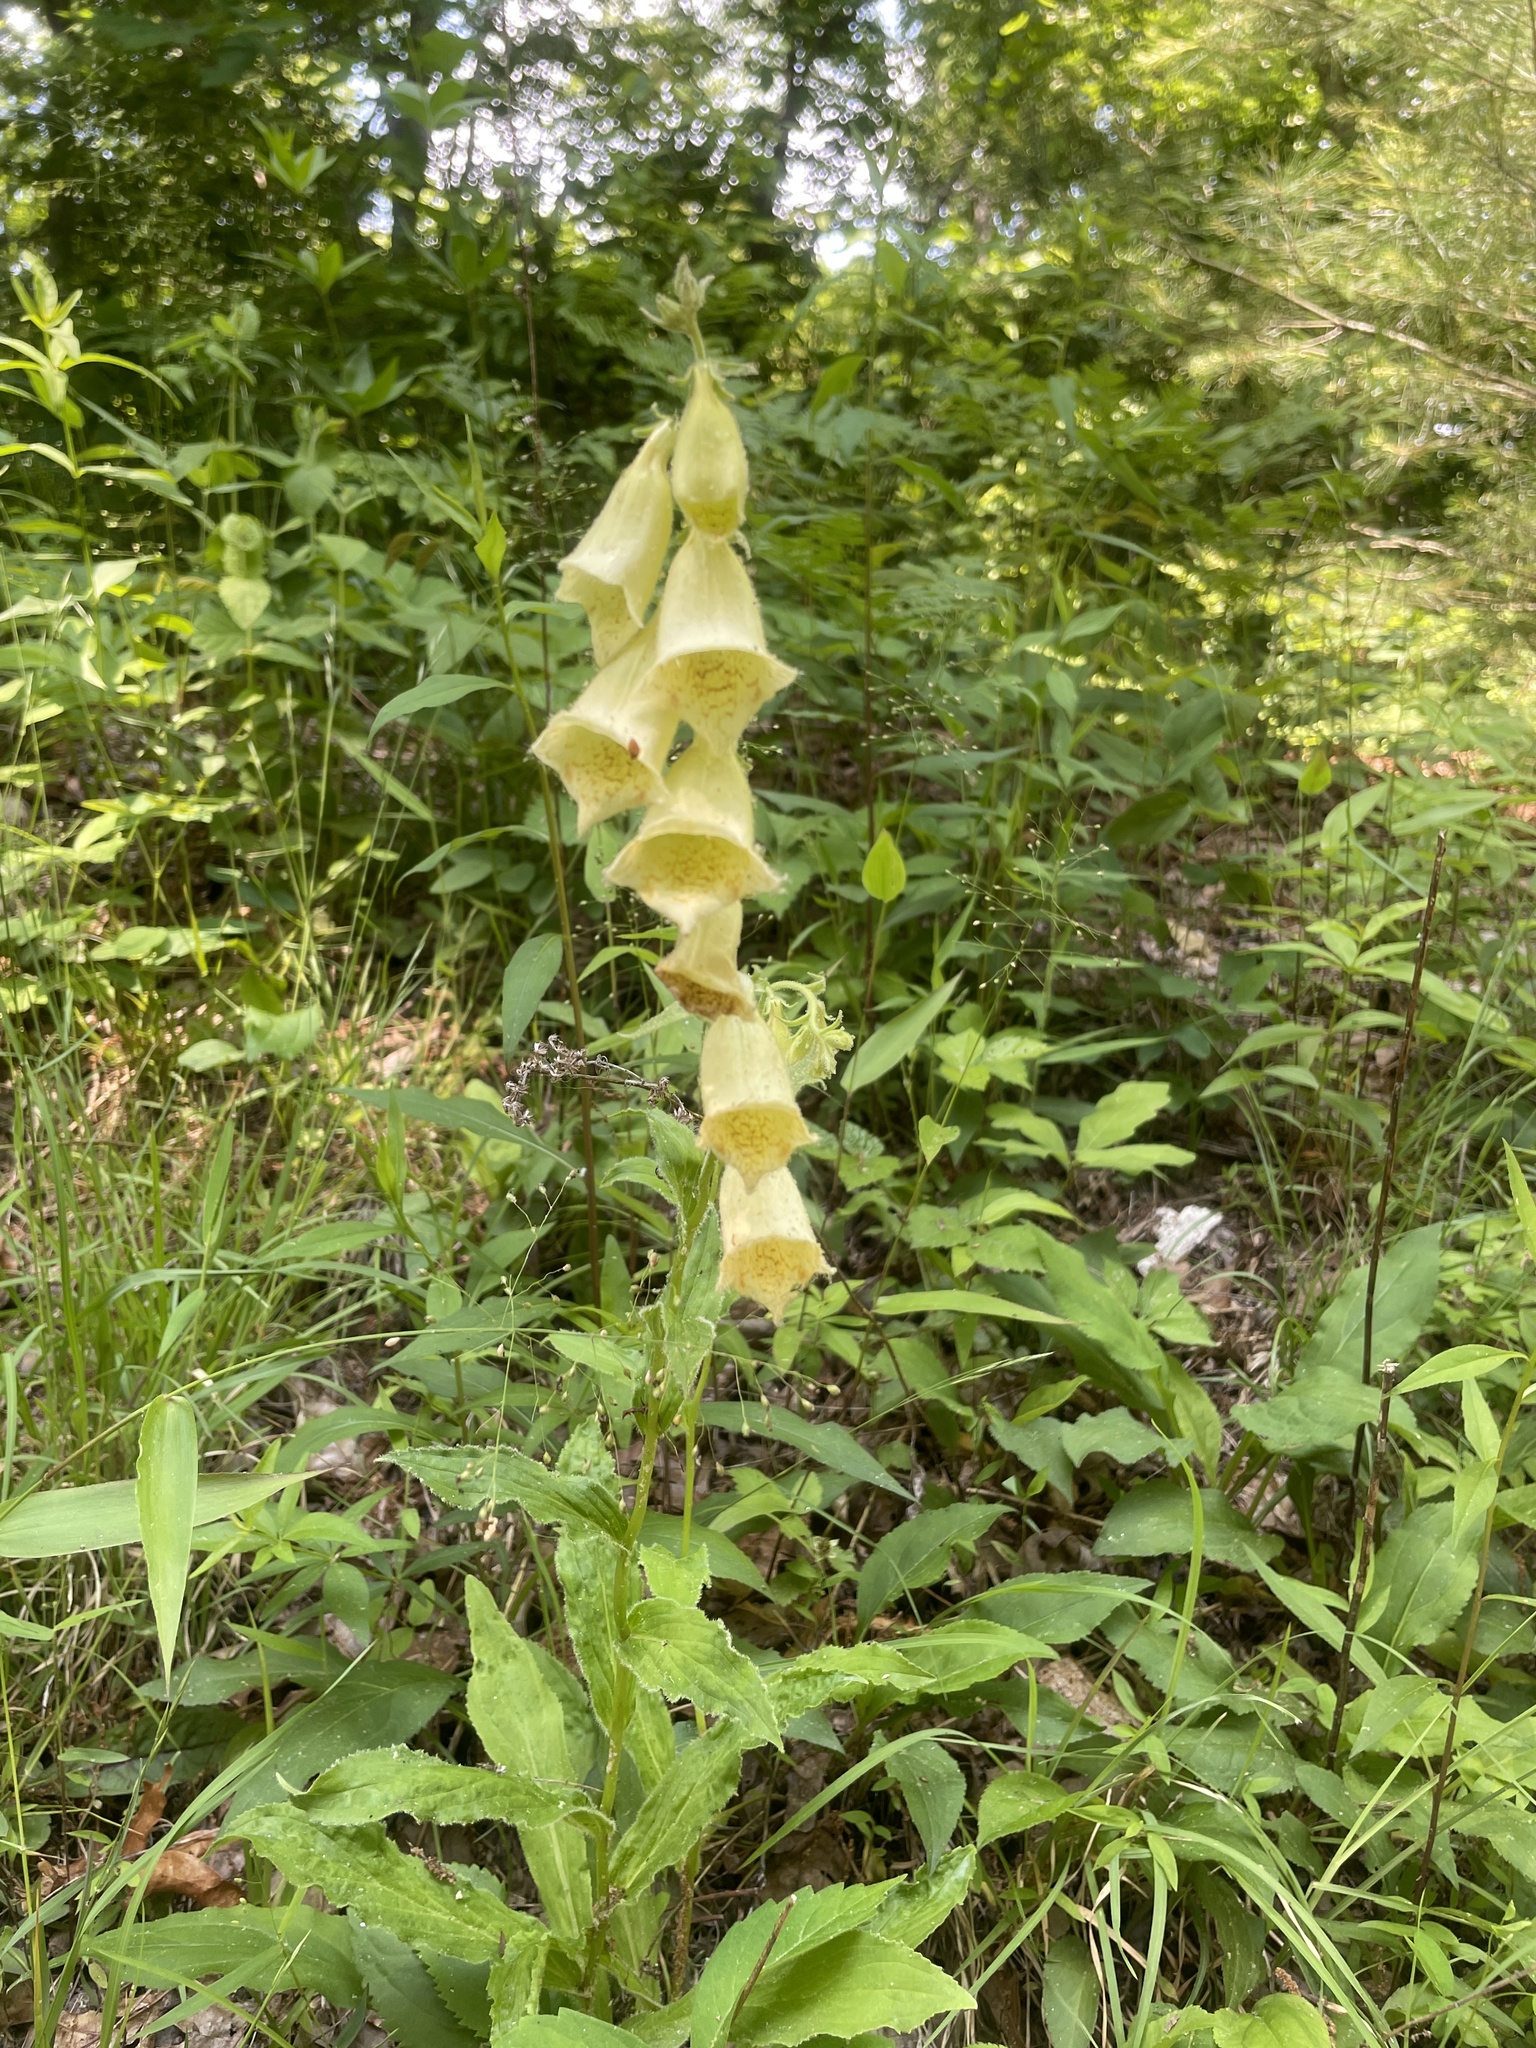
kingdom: Plantae
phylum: Tracheophyta
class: Magnoliopsida
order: Lamiales
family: Plantaginaceae
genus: Digitalis
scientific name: Digitalis grandiflora
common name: Yellow foxglove
